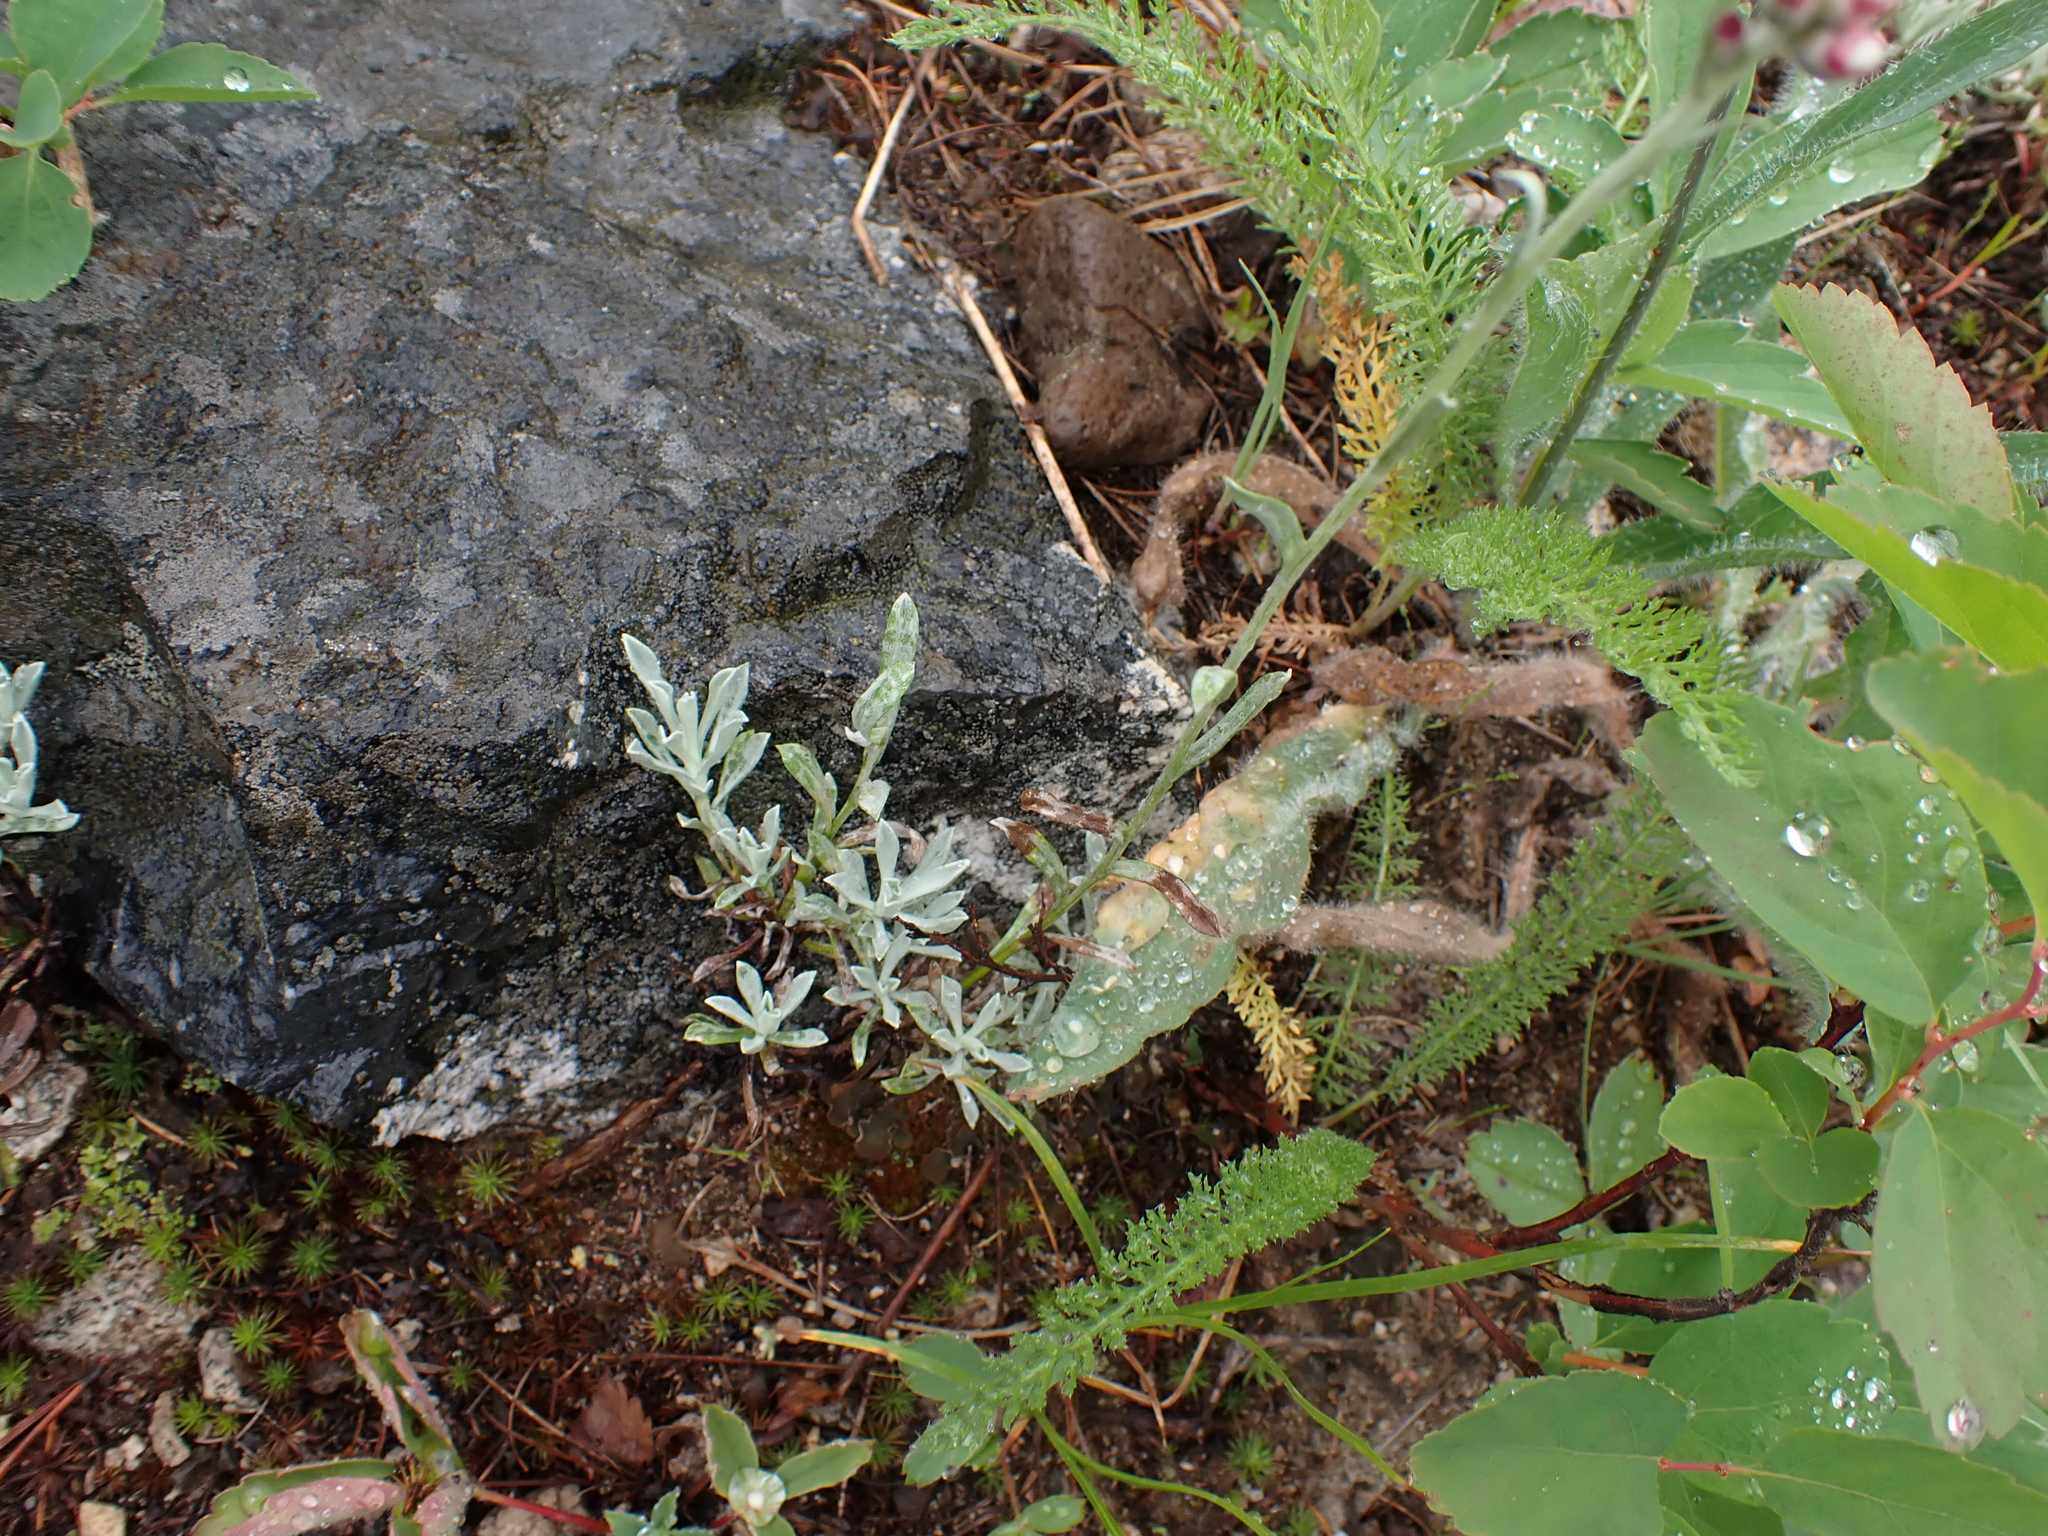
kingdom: Plantae
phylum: Tracheophyta
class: Magnoliopsida
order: Asterales
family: Asteraceae
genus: Antennaria
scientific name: Antennaria rosea
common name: Rosy pussytoes
